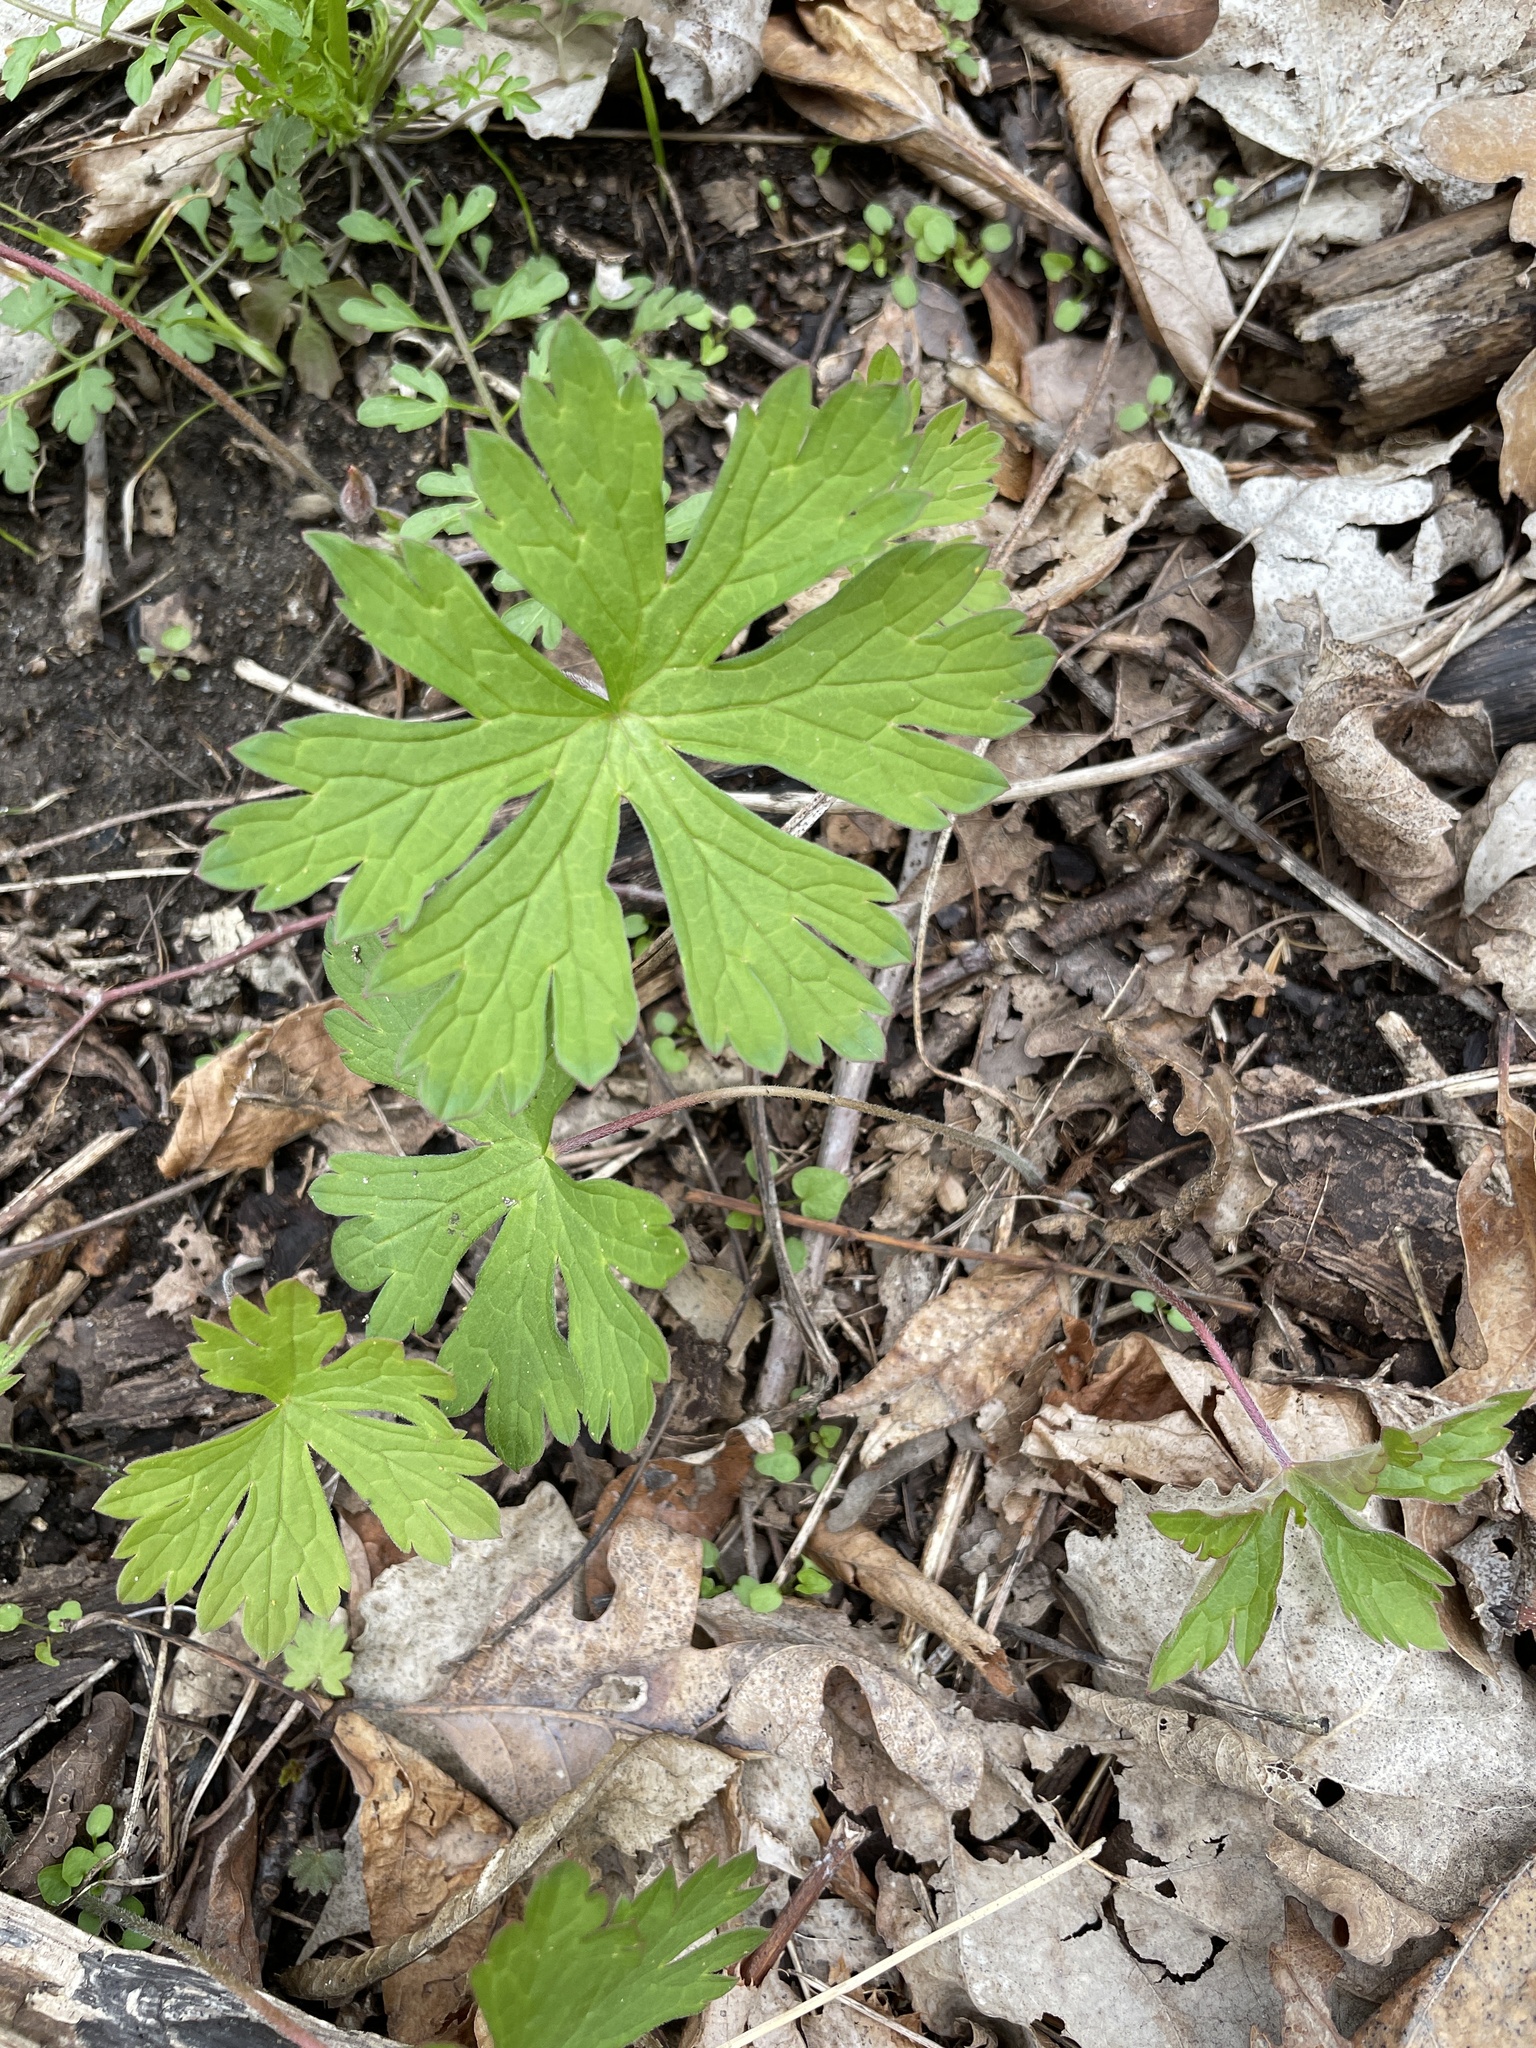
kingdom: Plantae
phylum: Tracheophyta
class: Magnoliopsida
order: Geraniales
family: Geraniaceae
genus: Geranium
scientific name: Geranium maculatum
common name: Spotted geranium
